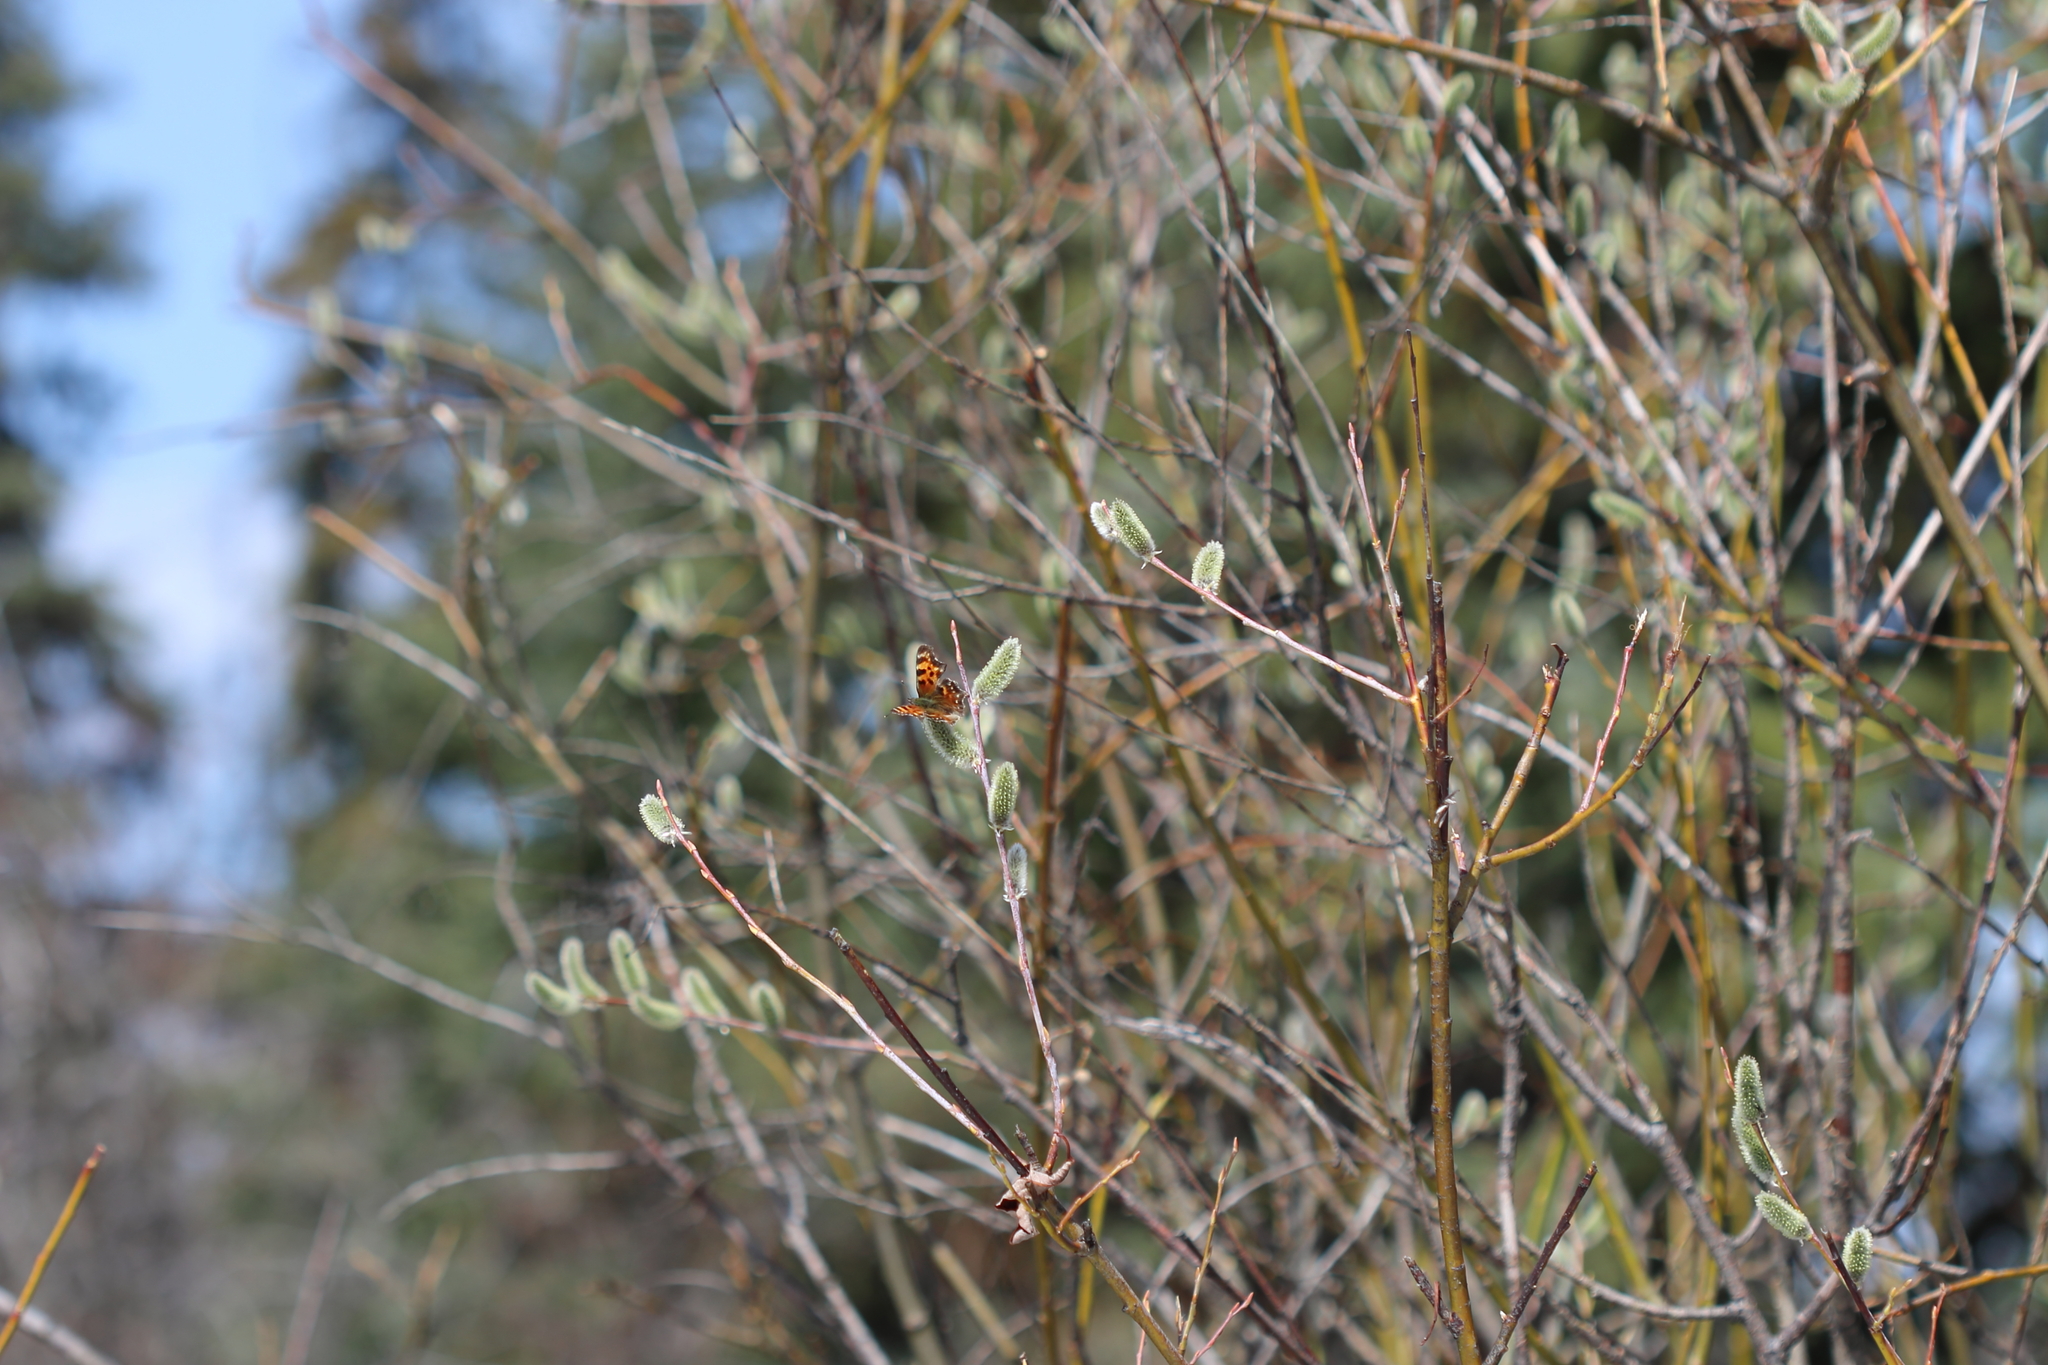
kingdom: Animalia
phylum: Arthropoda
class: Insecta
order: Lepidoptera
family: Nymphalidae
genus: Polygonia
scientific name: Polygonia faunus
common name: Green comma
